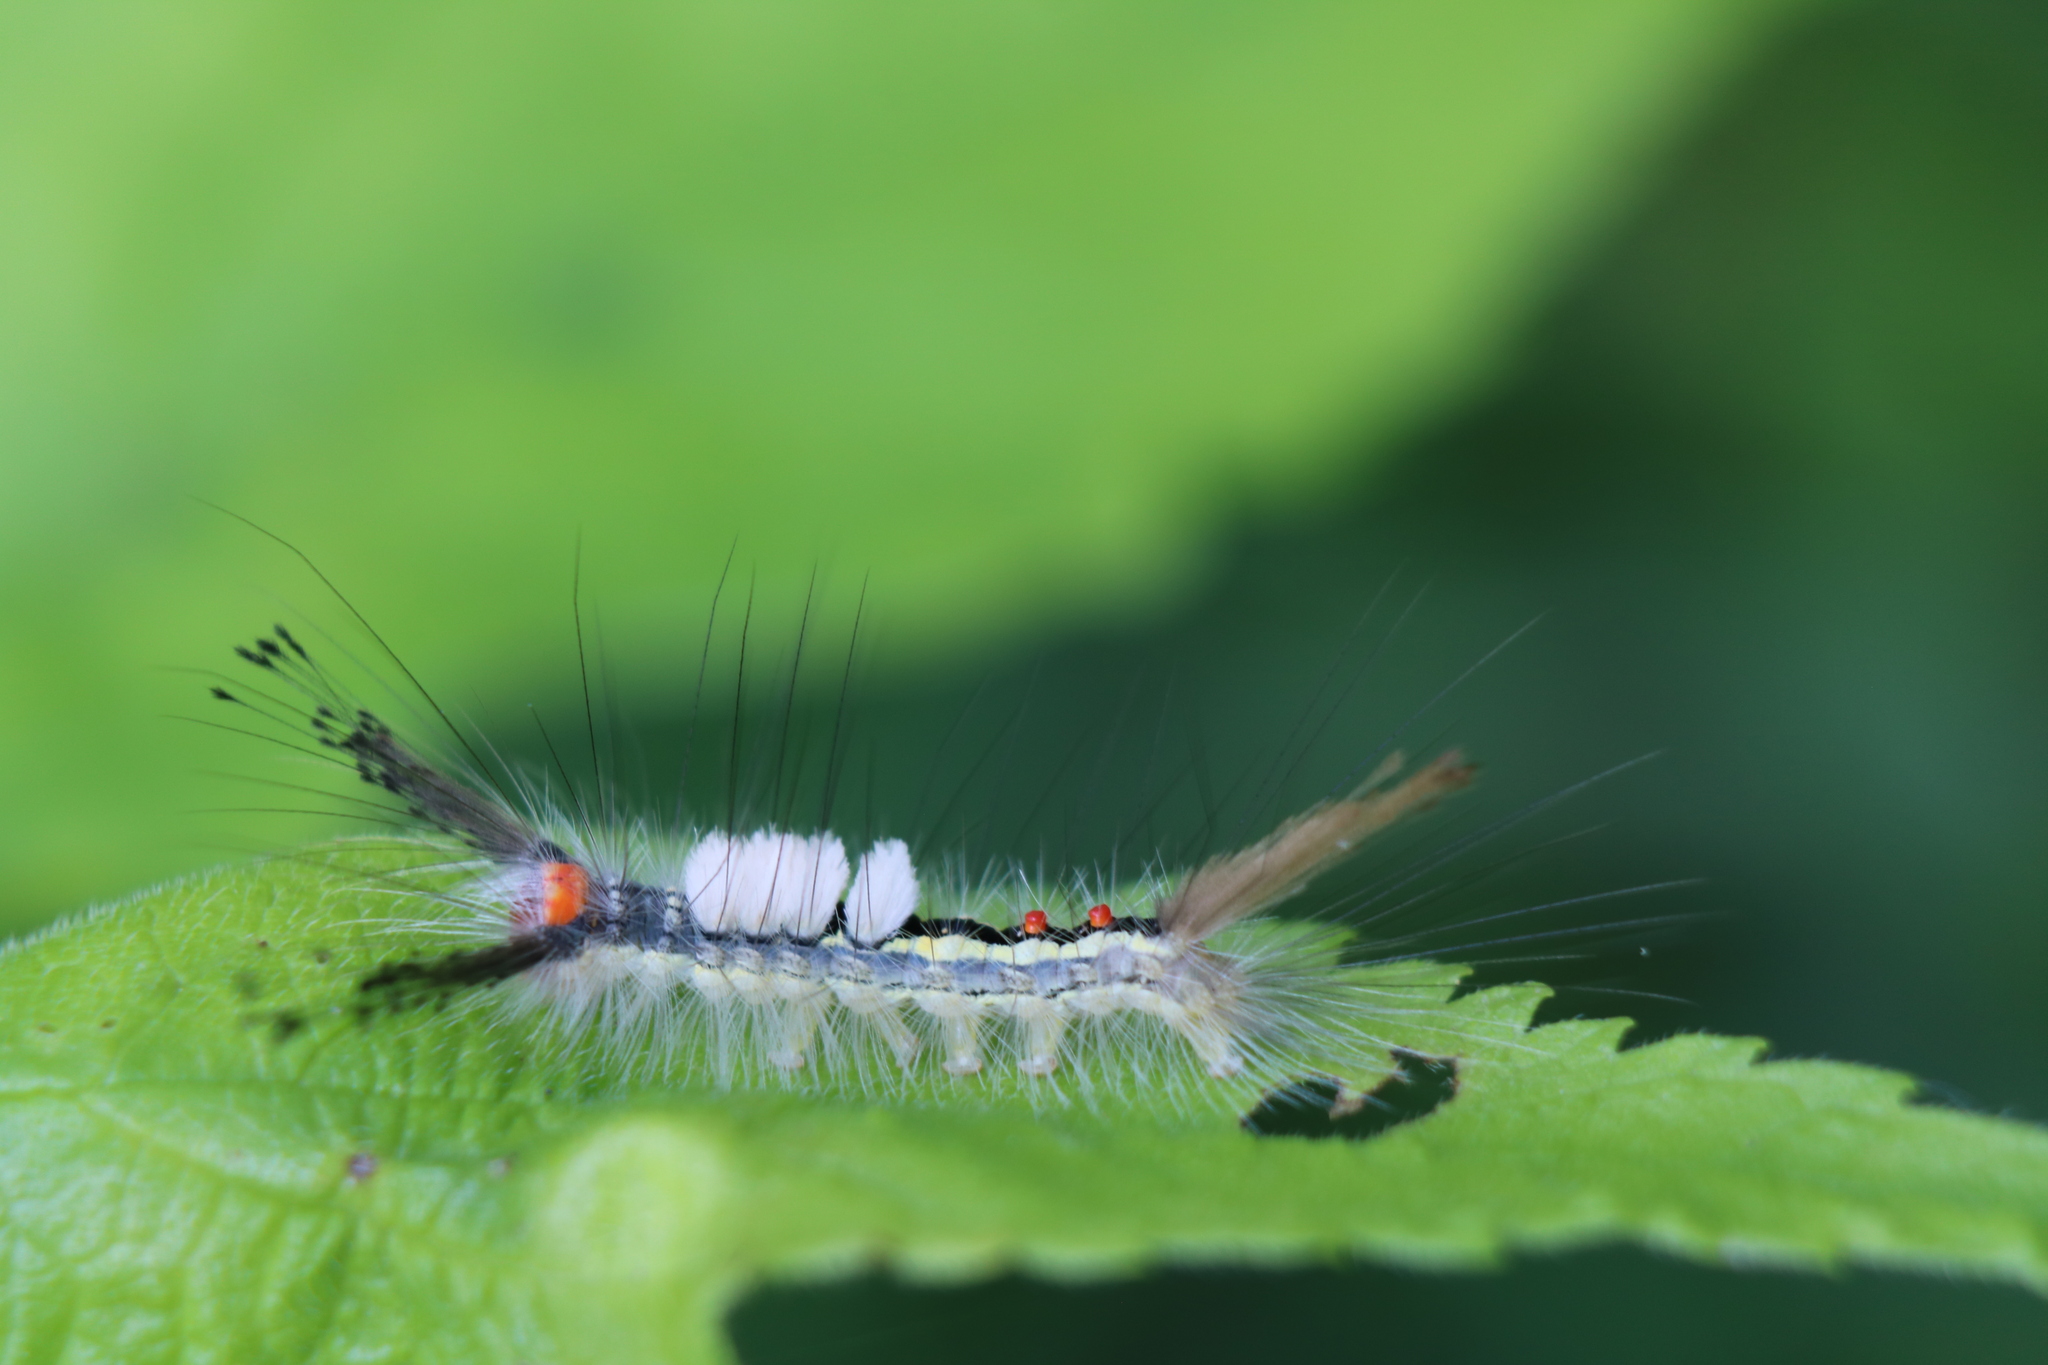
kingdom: Animalia
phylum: Arthropoda
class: Insecta
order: Lepidoptera
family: Erebidae
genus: Orgyia
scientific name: Orgyia leucostigma
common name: White-marked tussock moth
